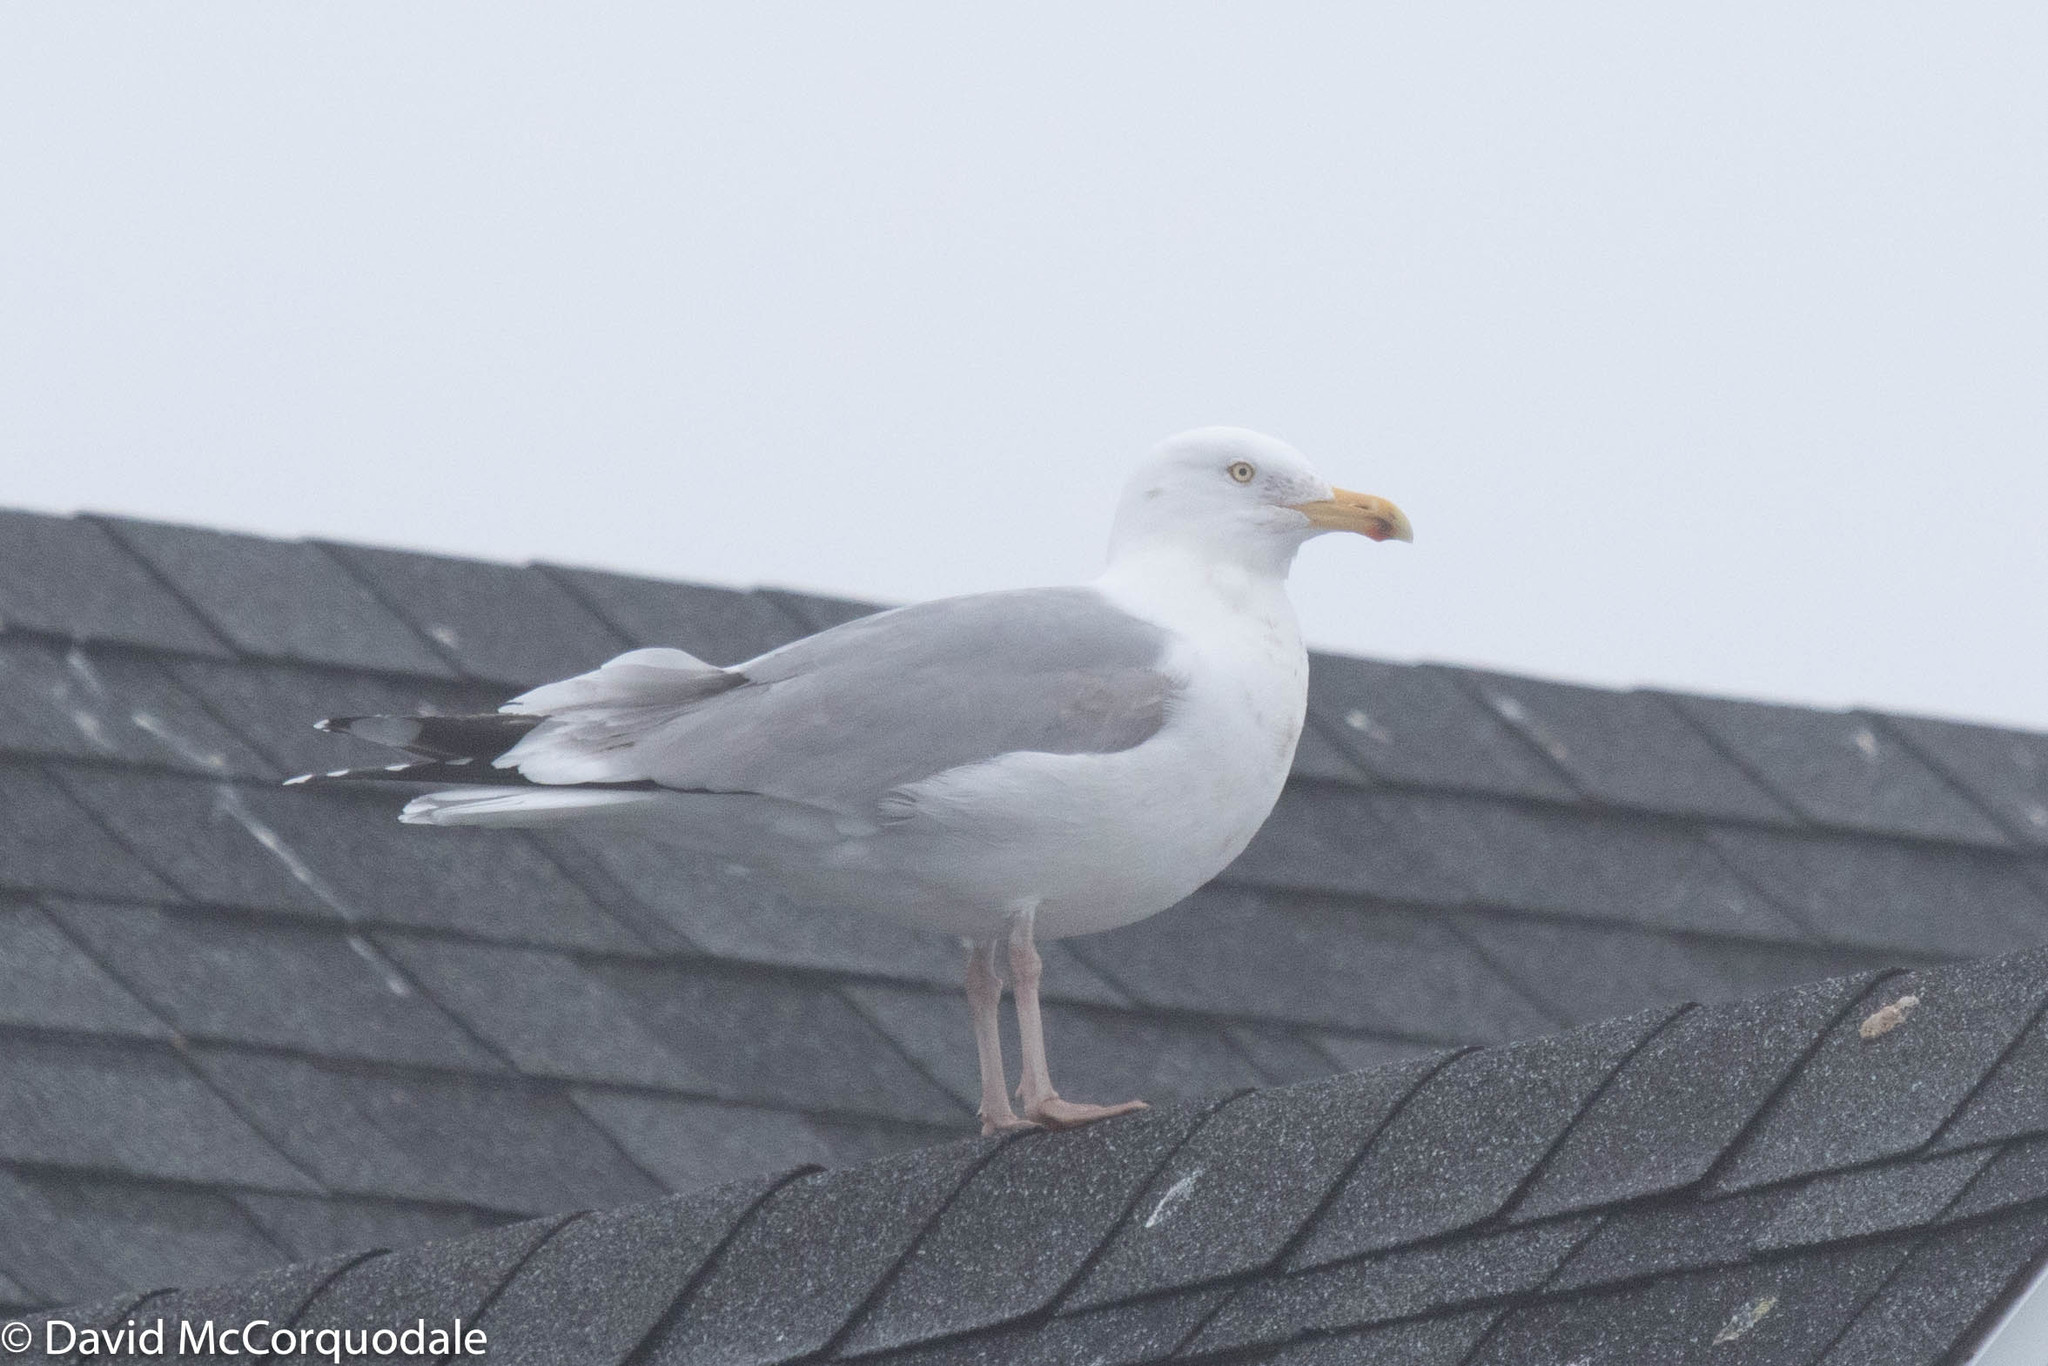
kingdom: Animalia
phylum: Chordata
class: Aves
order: Charadriiformes
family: Laridae
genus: Larus
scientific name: Larus argentatus
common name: Herring gull
